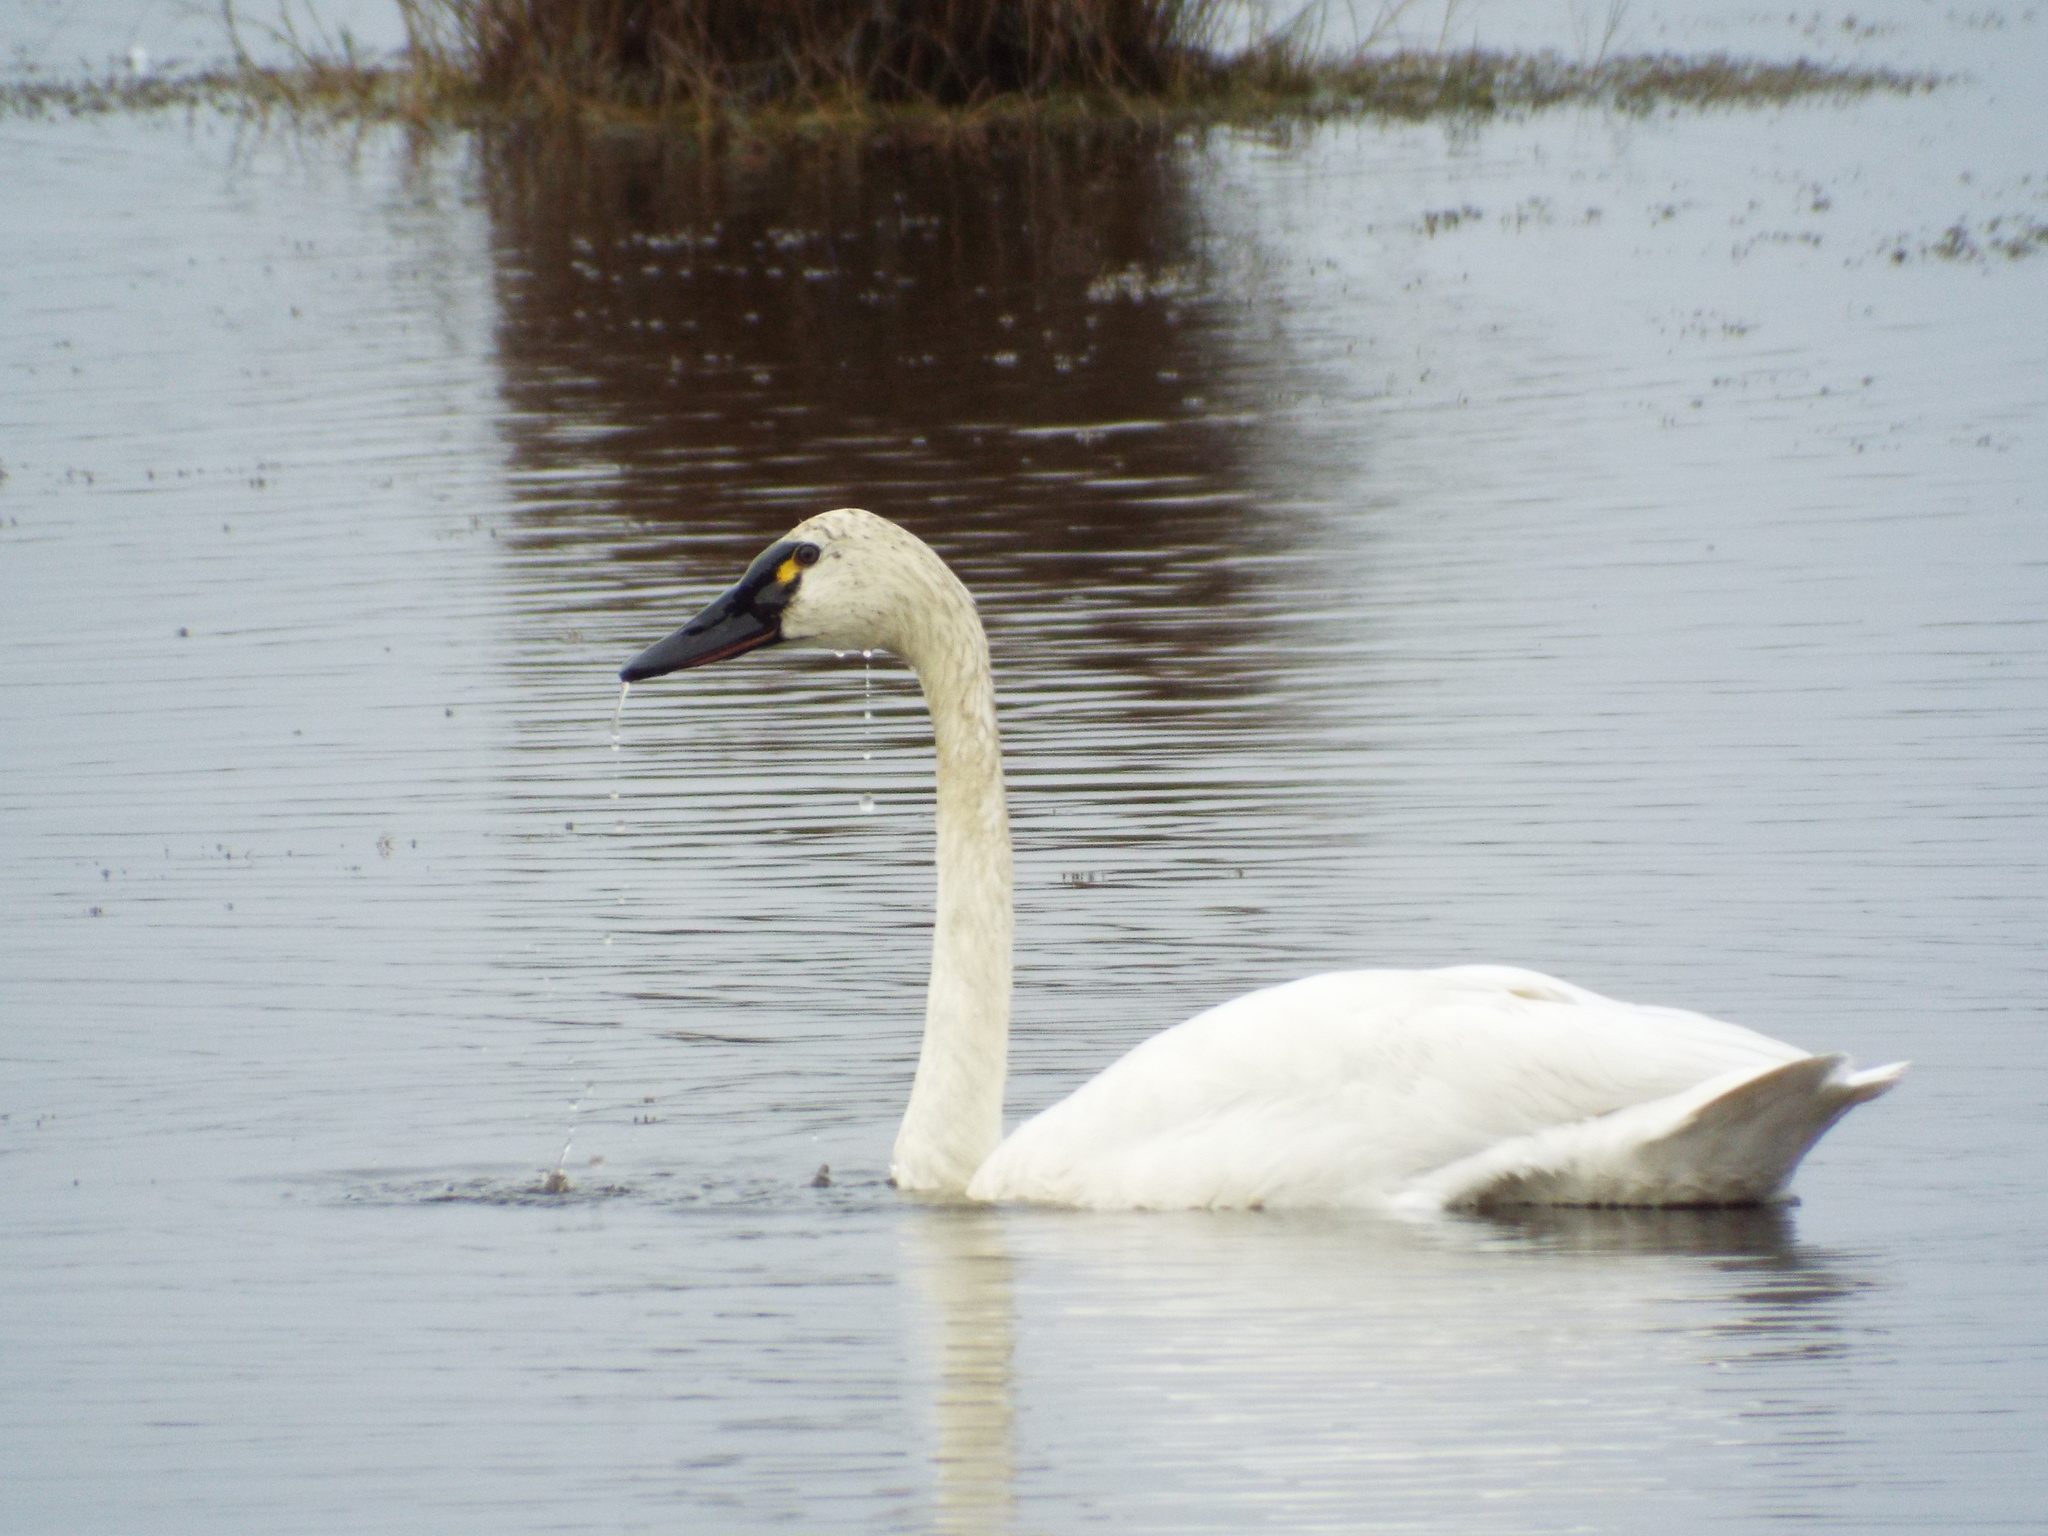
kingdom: Animalia
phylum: Chordata
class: Aves
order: Anseriformes
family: Anatidae
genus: Cygnus
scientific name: Cygnus columbianus
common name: Tundra swan
